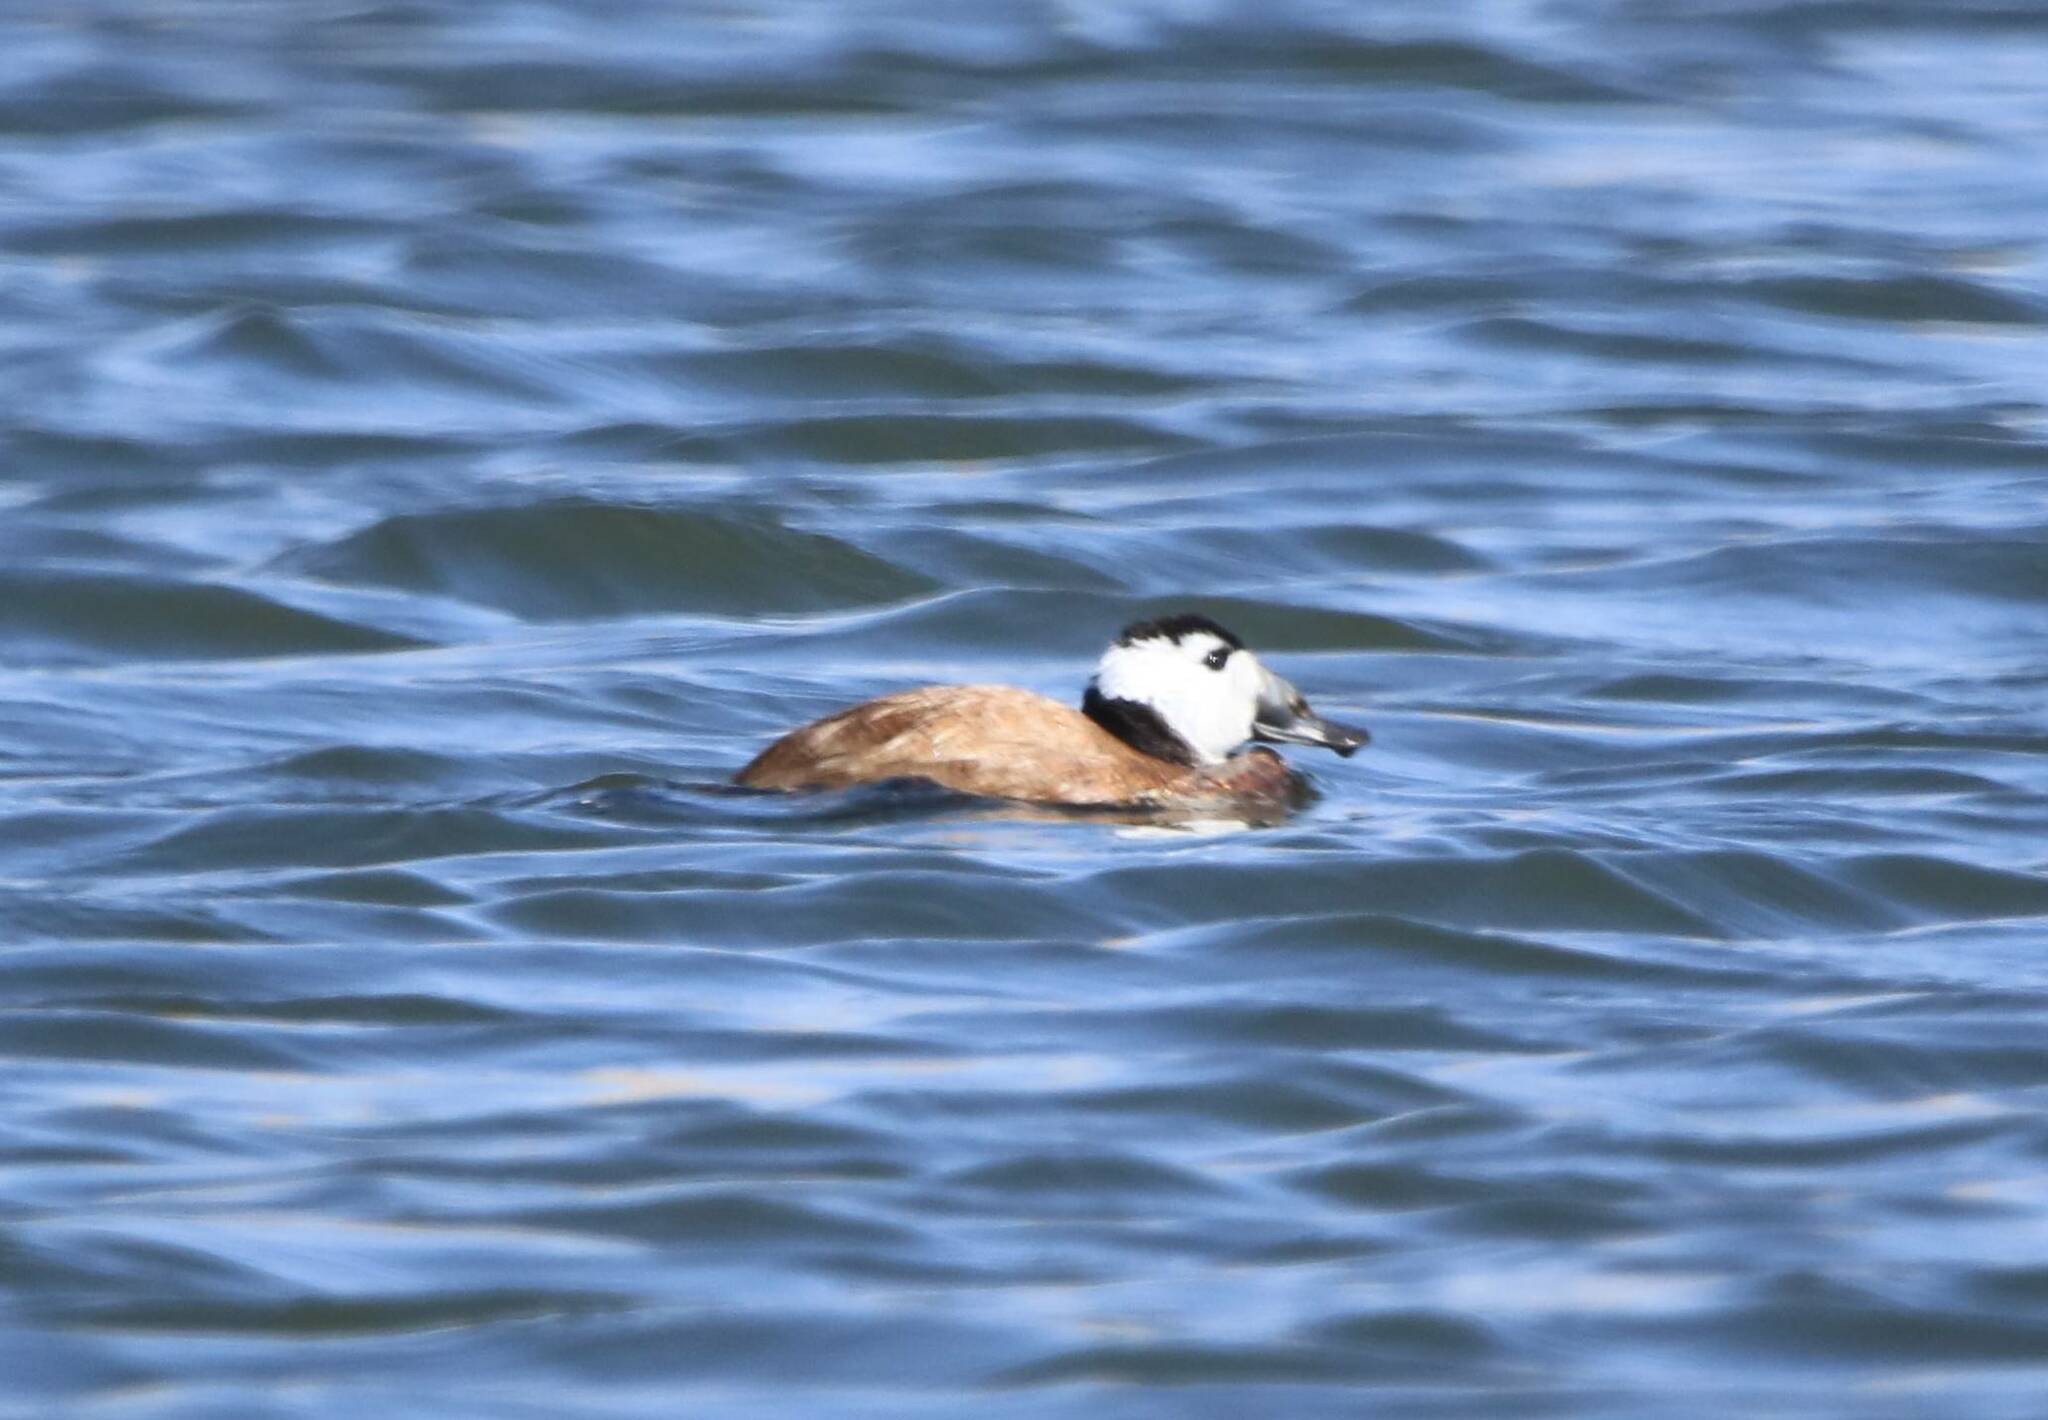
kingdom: Animalia
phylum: Chordata
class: Aves
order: Anseriformes
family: Anatidae
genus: Oxyura
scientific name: Oxyura leucocephala
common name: White-headed duck
